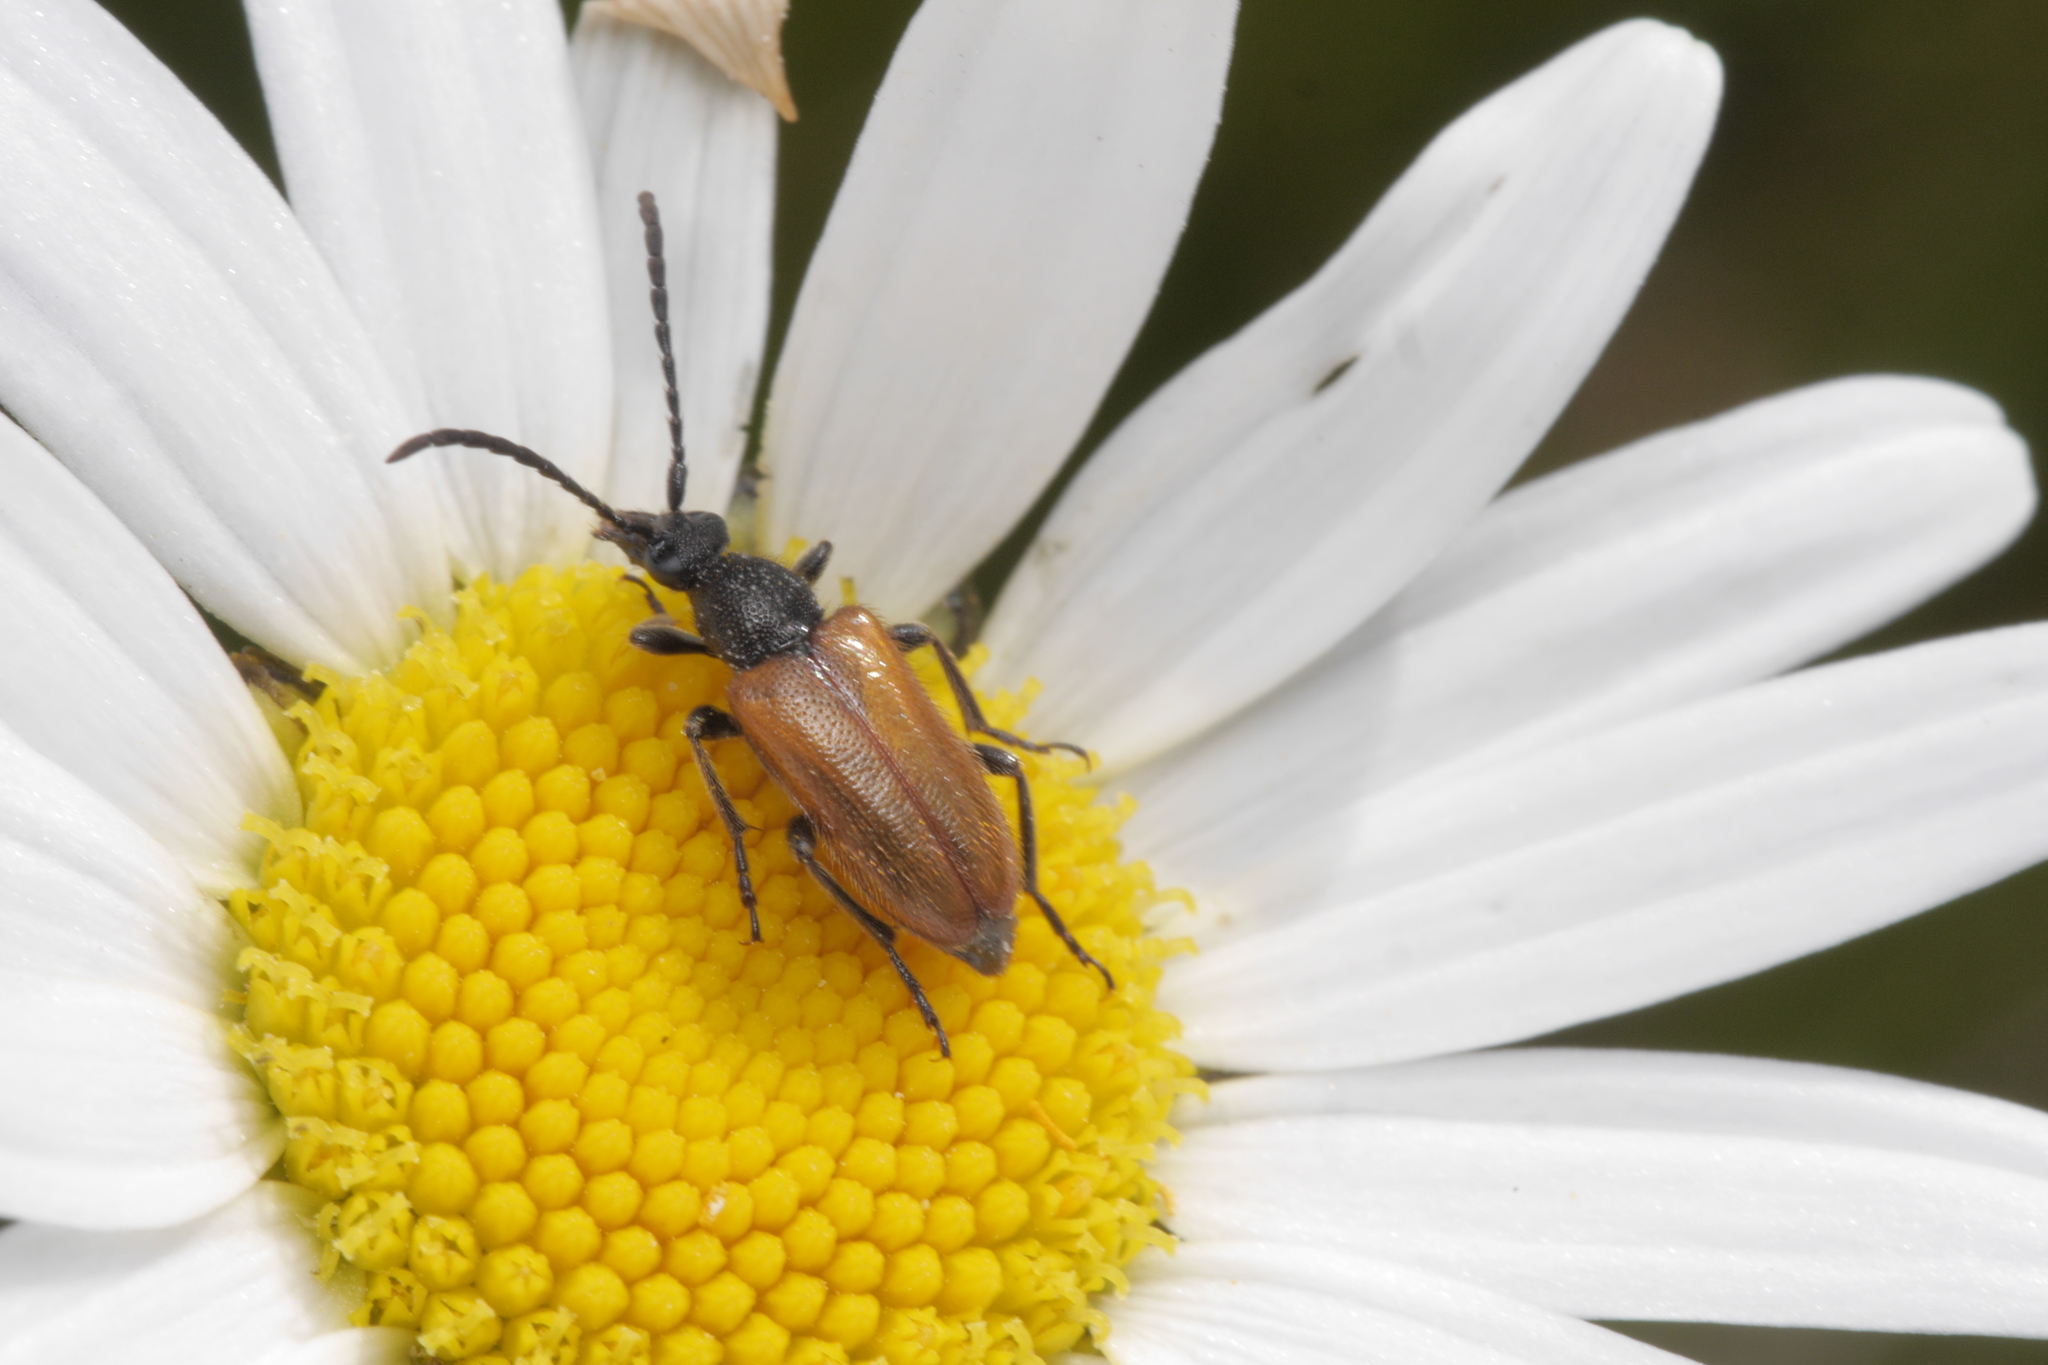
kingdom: Animalia
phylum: Arthropoda
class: Insecta
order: Coleoptera
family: Cerambycidae
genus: Pseudovadonia
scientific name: Pseudovadonia livida
